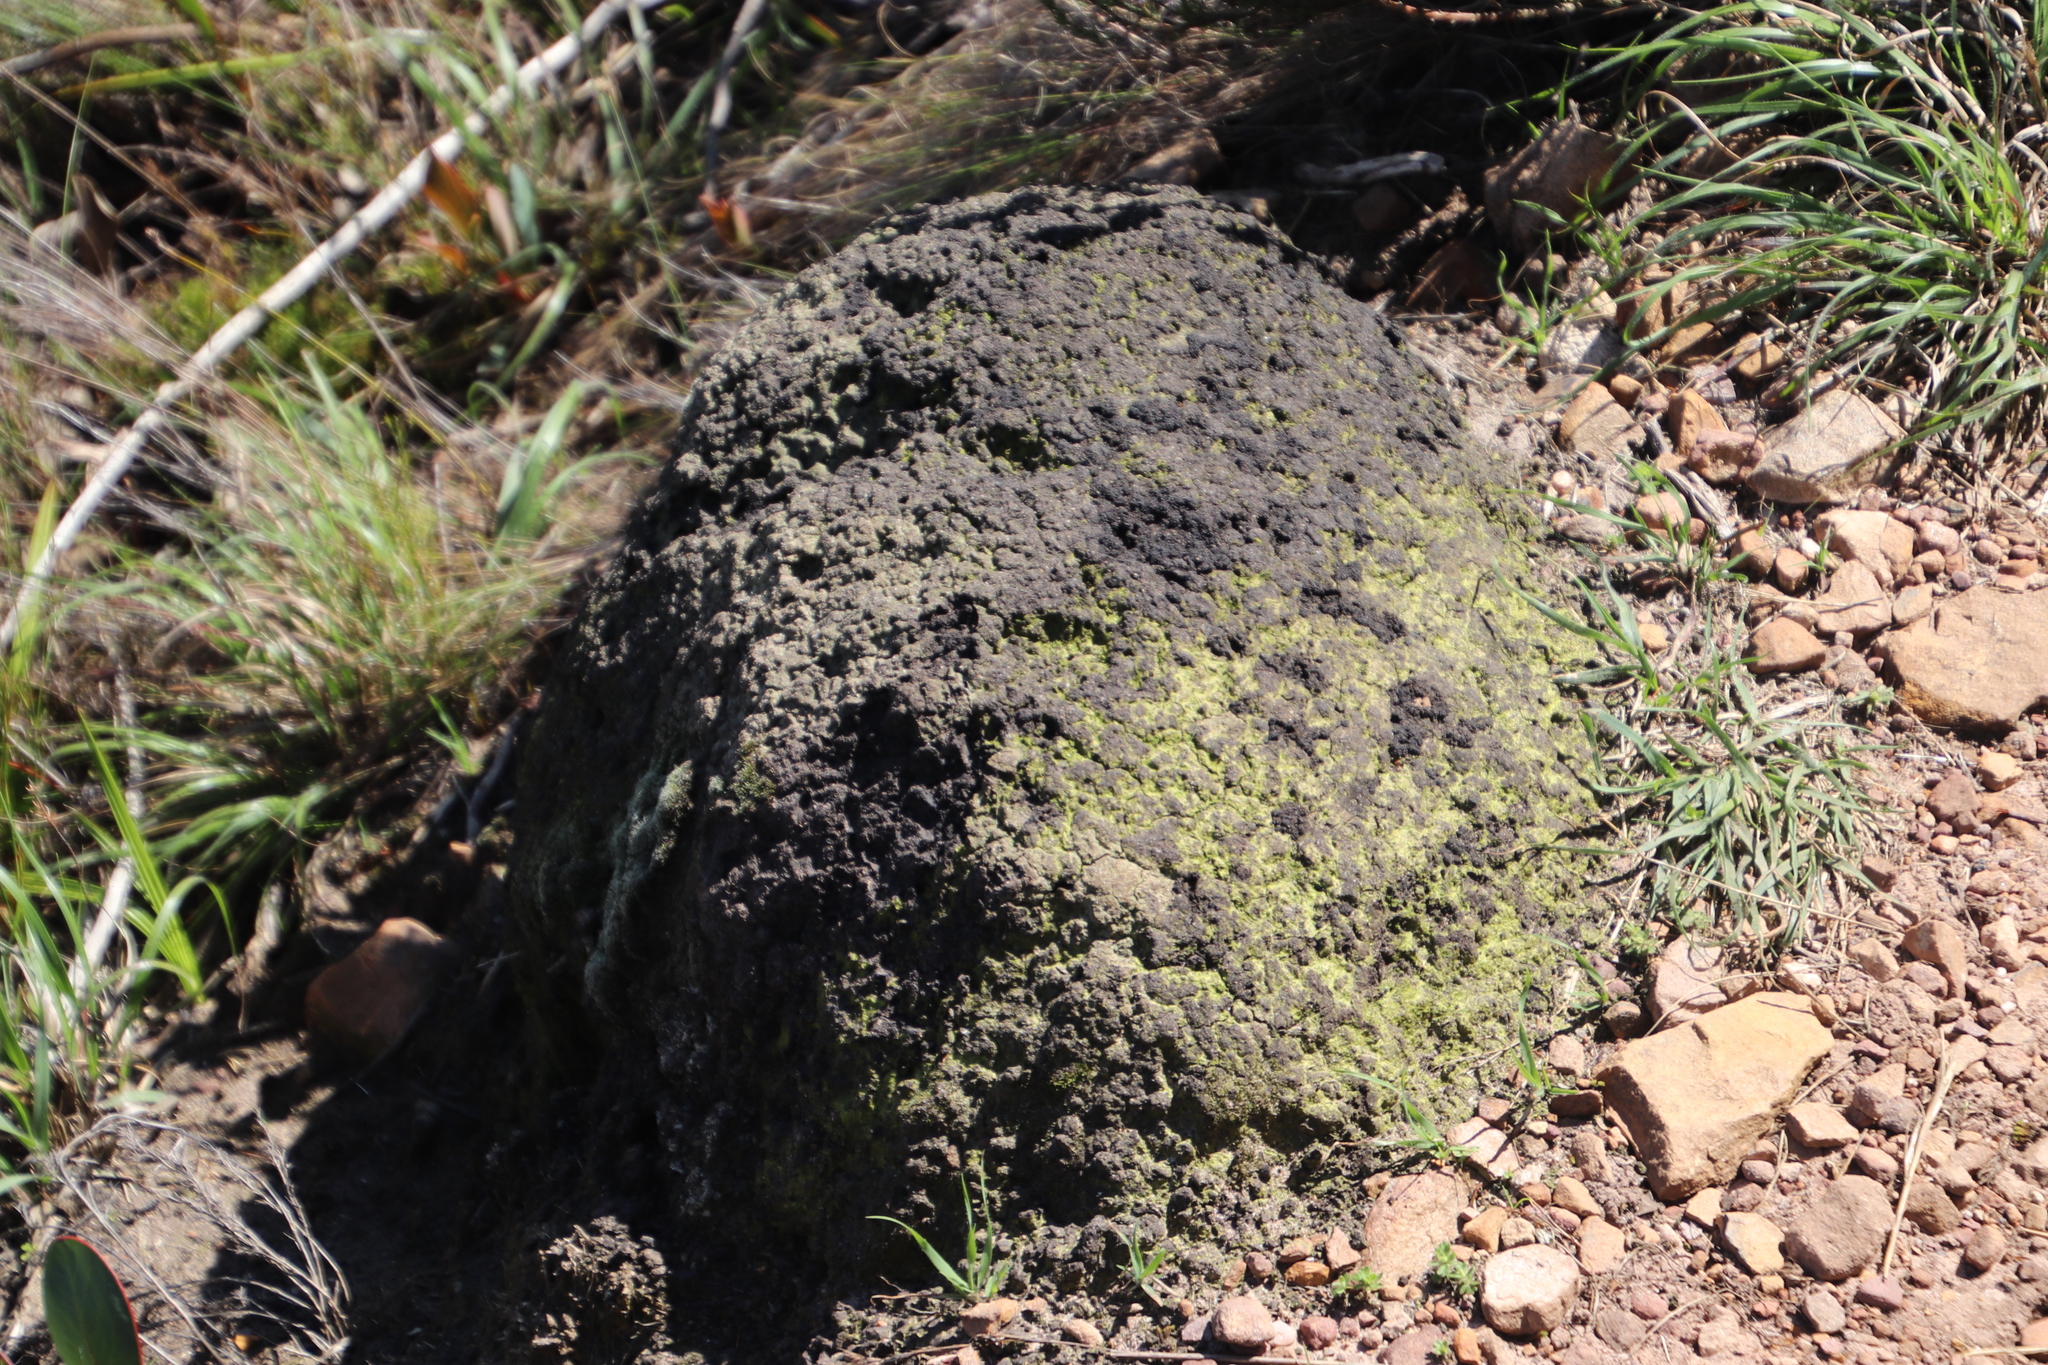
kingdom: Animalia
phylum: Arthropoda
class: Insecta
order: Blattodea
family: Termitidae
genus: Amitermes
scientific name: Amitermes hastatus
